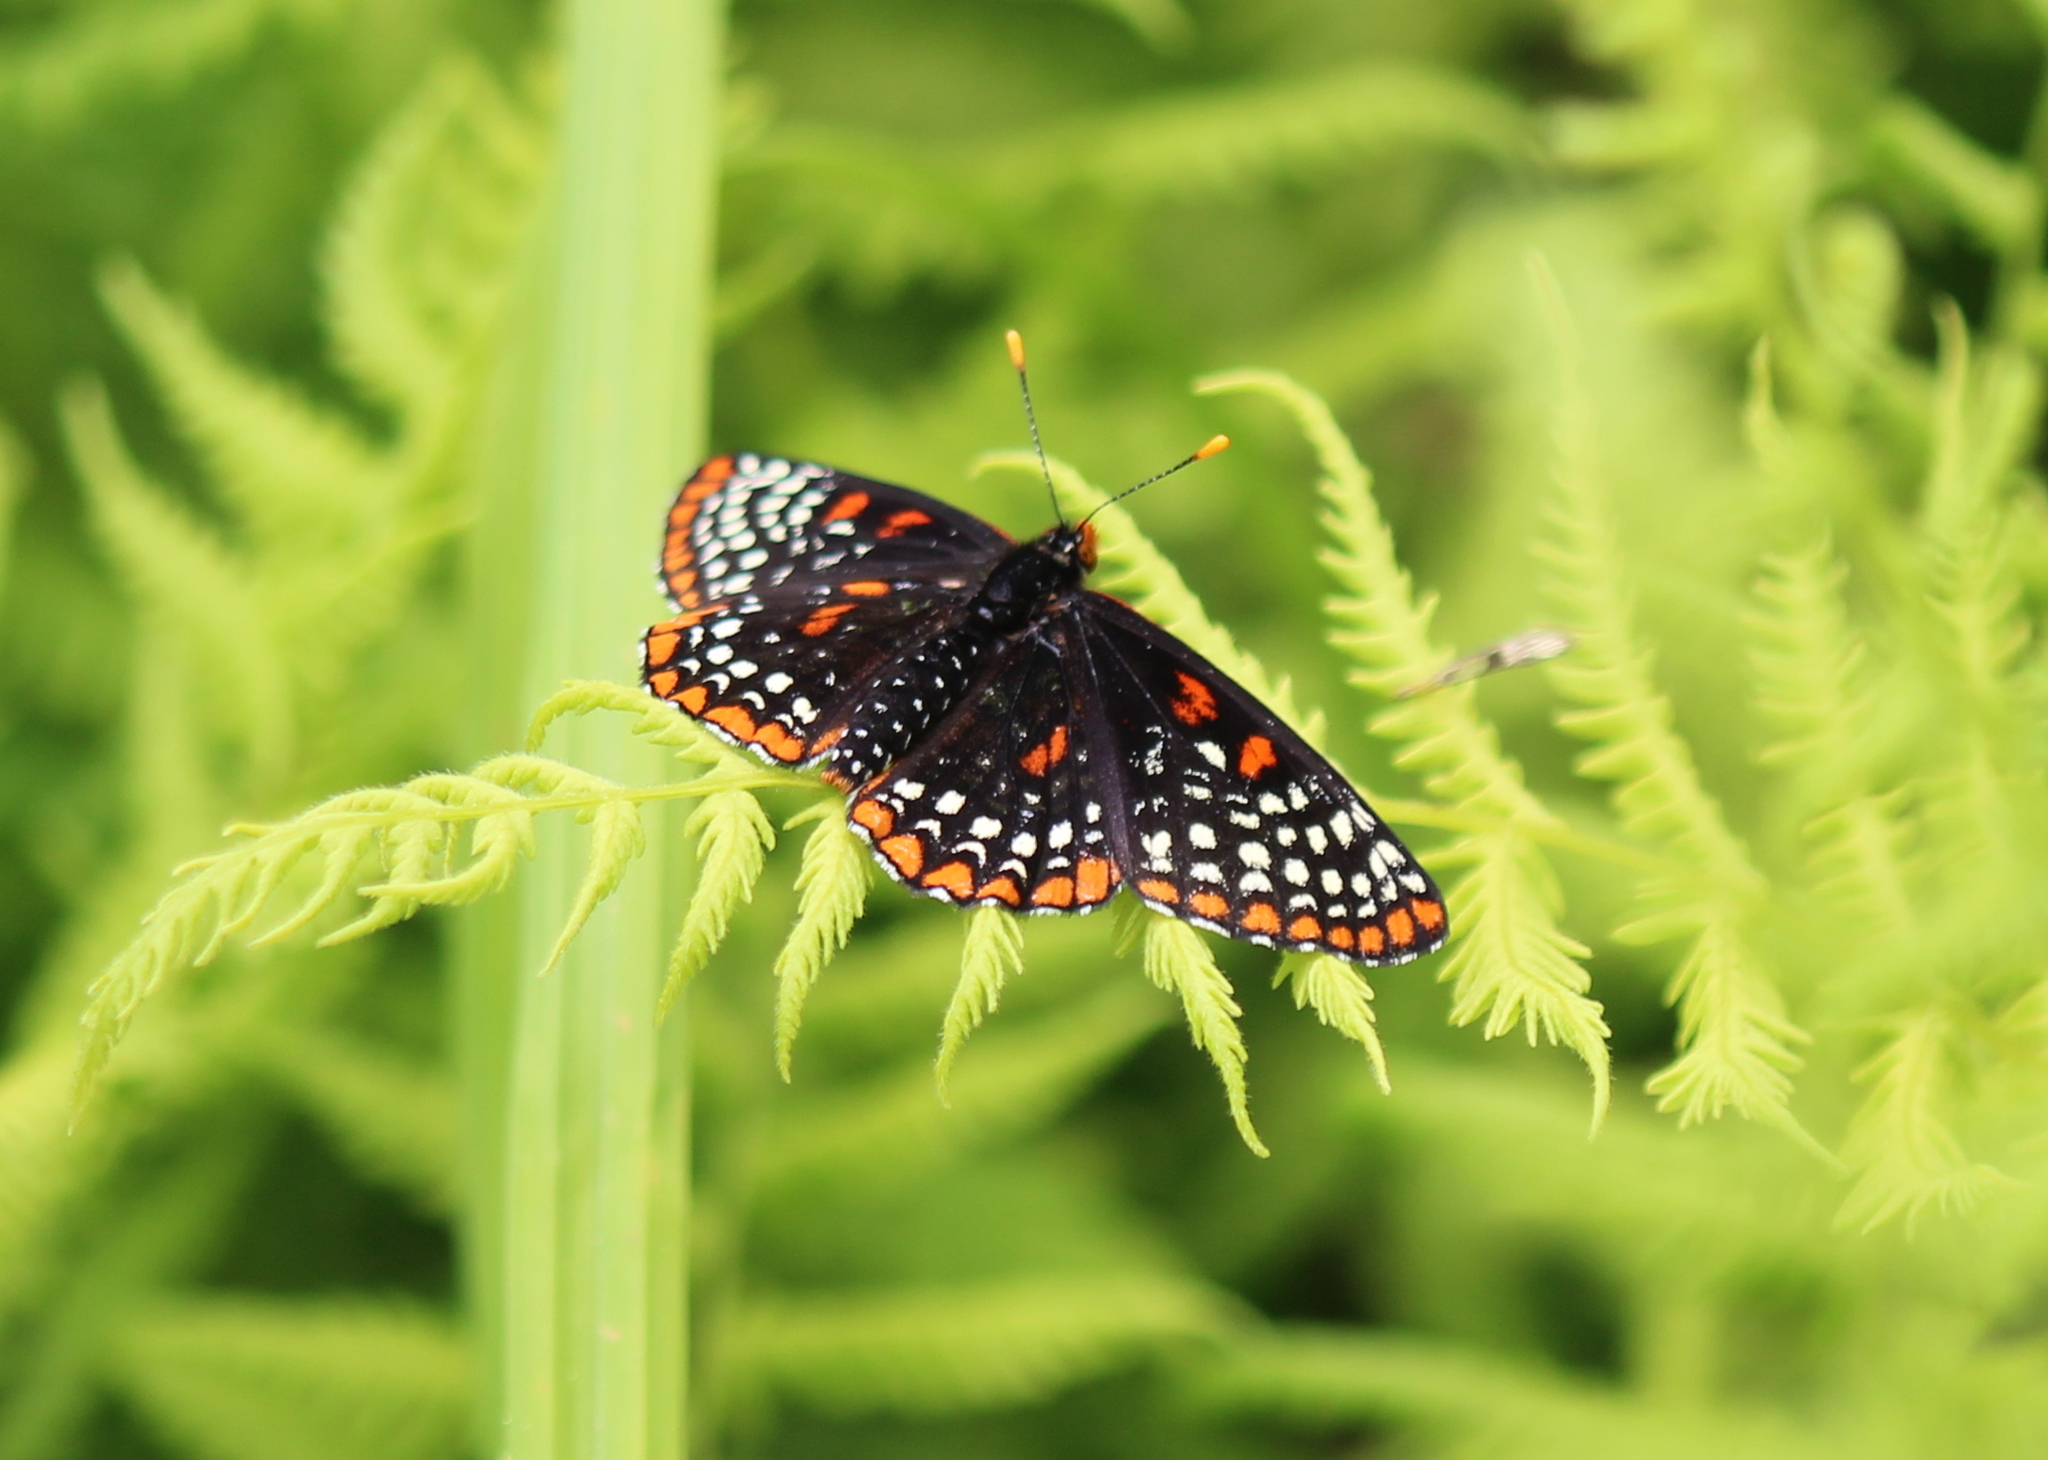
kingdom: Animalia
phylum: Arthropoda
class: Insecta
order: Lepidoptera
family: Nymphalidae
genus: Euphydryas
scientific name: Euphydryas phaeton
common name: Baltimore checkerspot
